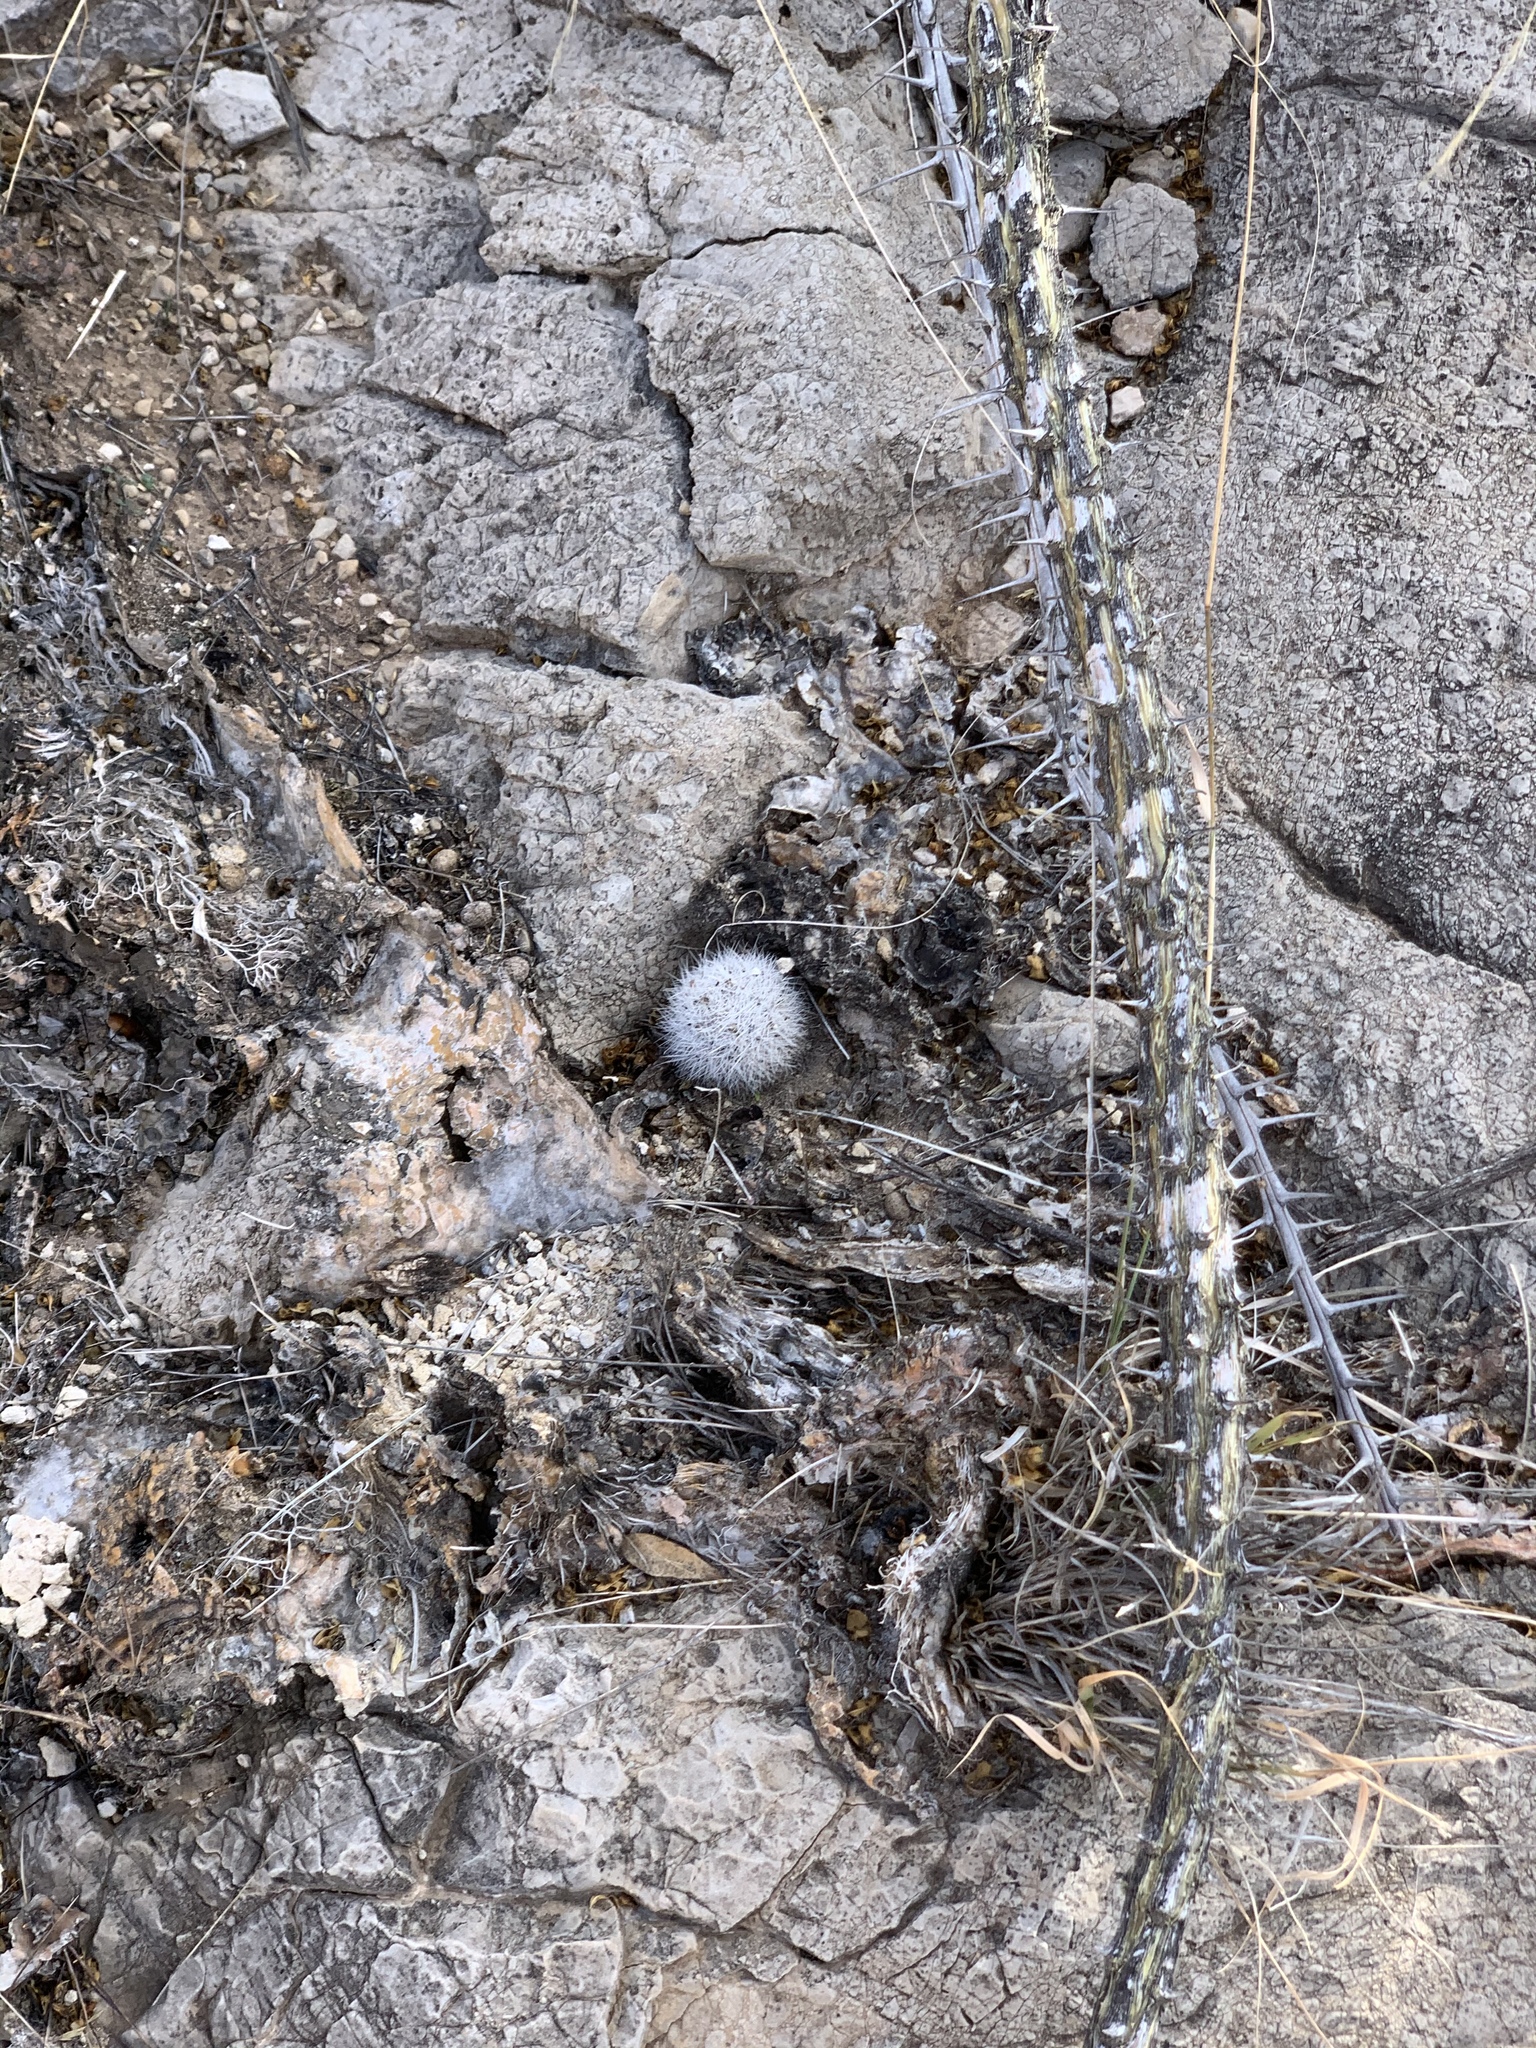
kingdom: Plantae
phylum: Tracheophyta
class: Magnoliopsida
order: Caryophyllales
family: Cactaceae
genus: Pelecyphora
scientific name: Pelecyphora sneedii
